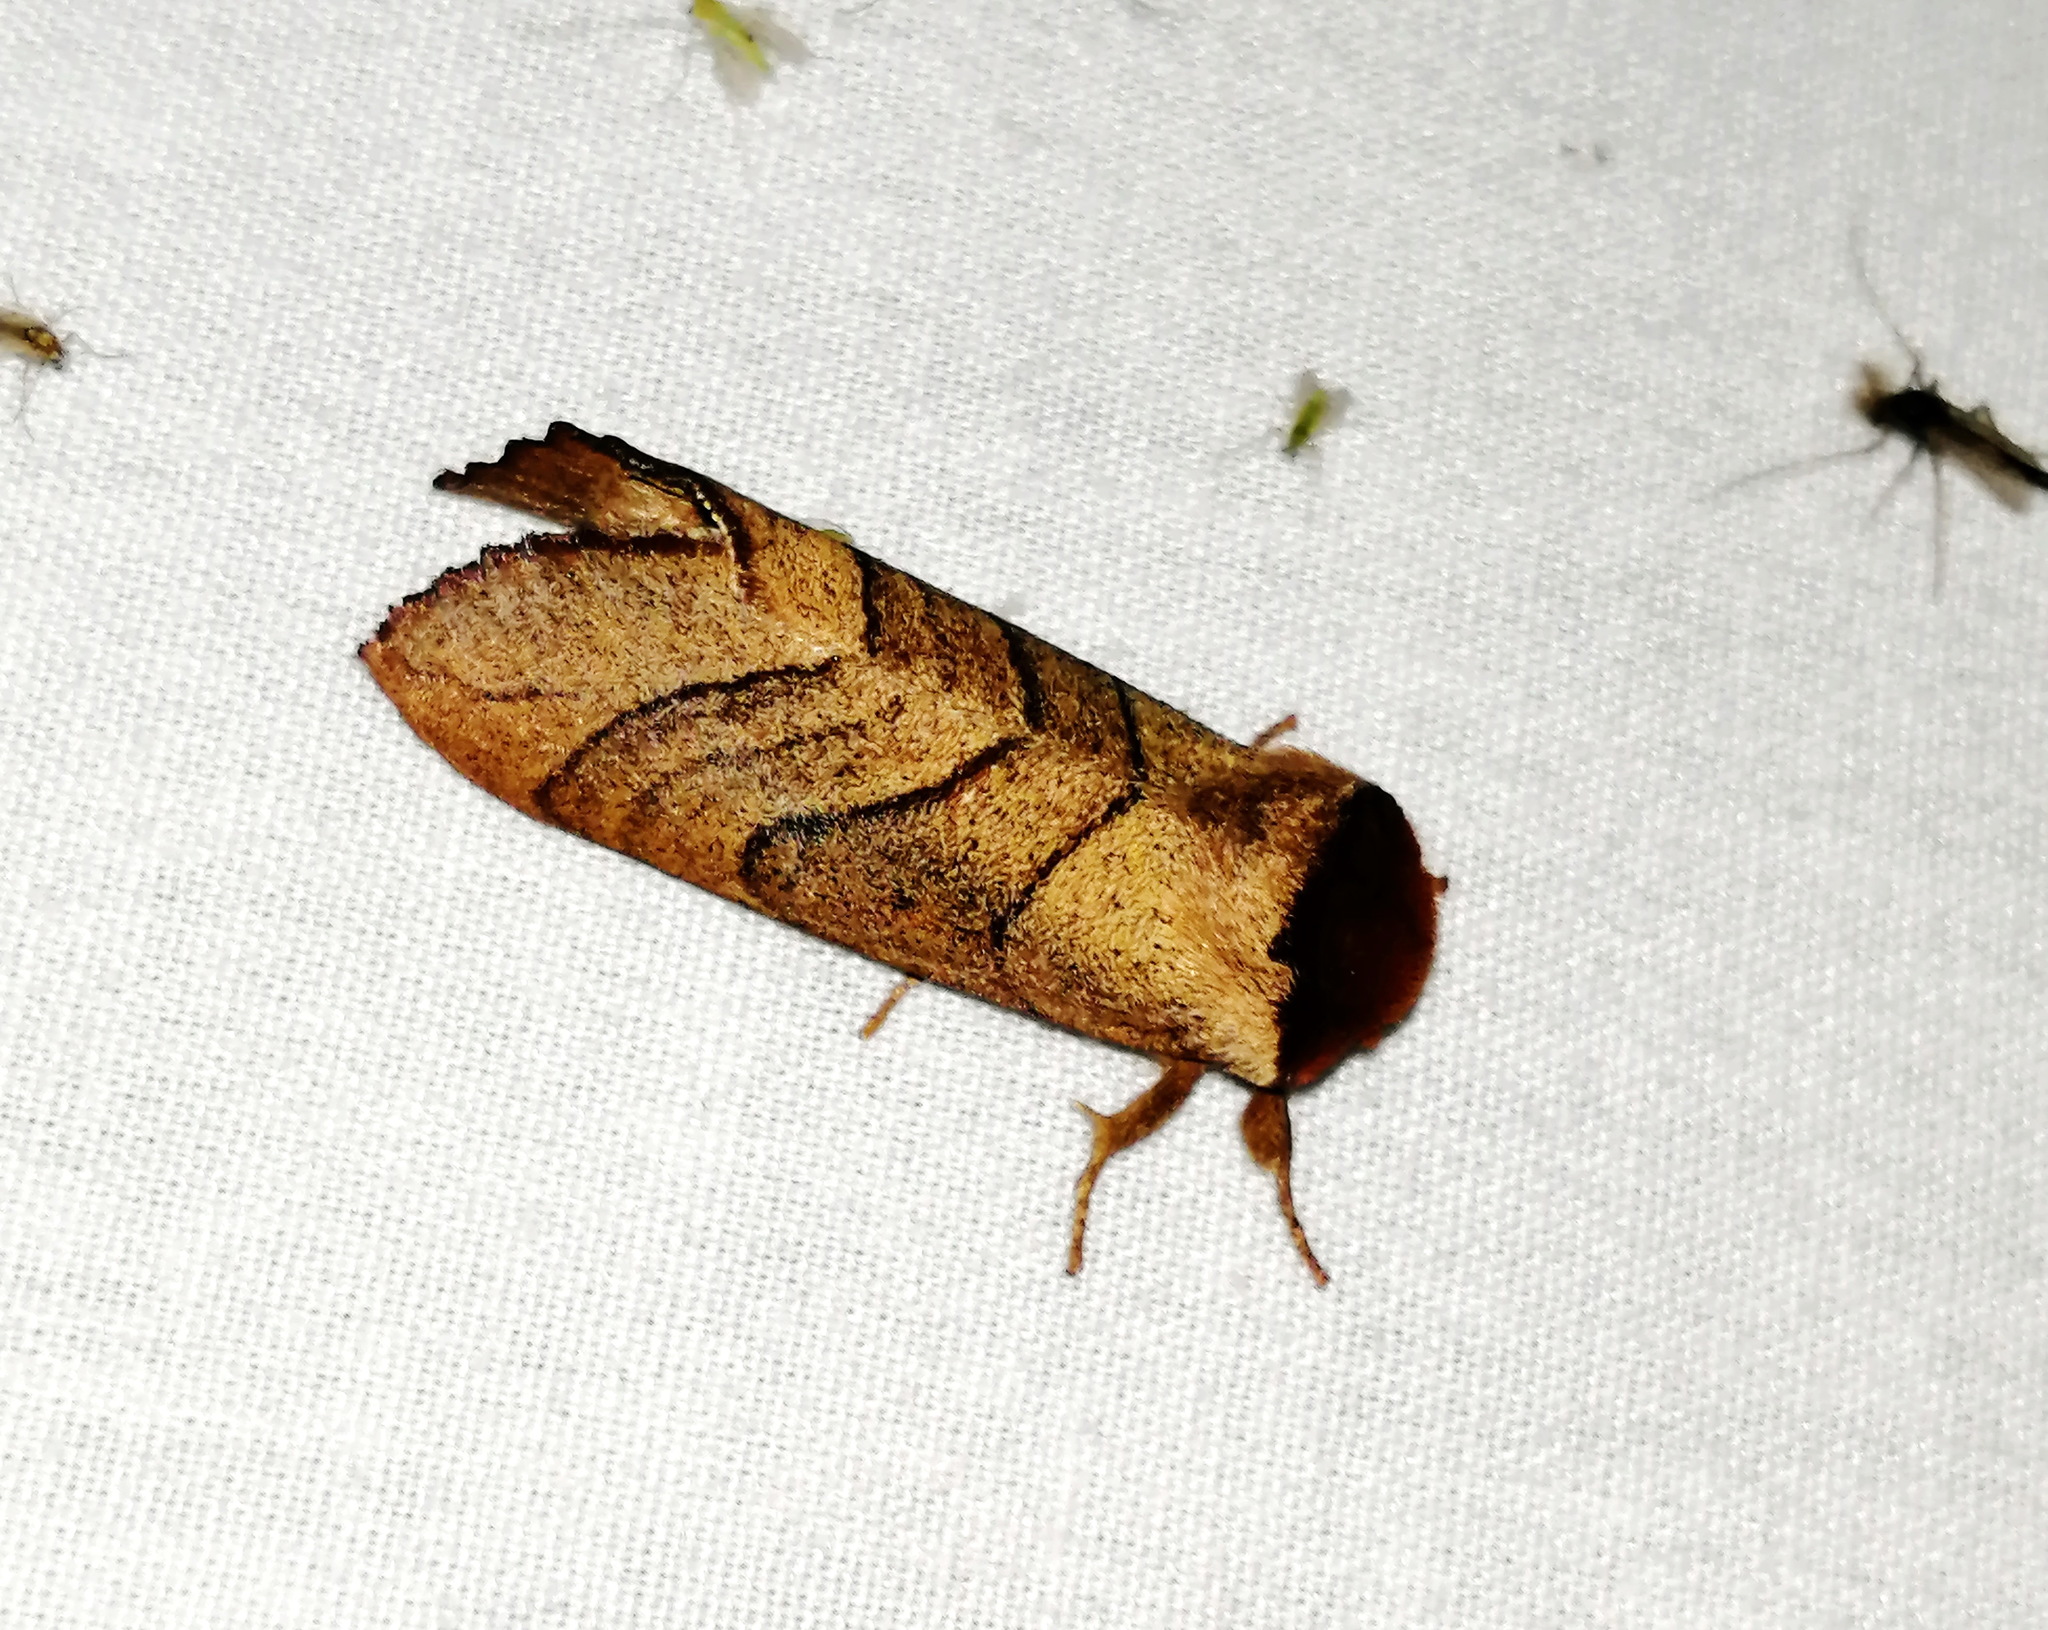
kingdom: Animalia
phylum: Arthropoda
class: Insecta
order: Lepidoptera
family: Notodontidae
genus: Datana
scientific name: Datana angusii
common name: Angus's datana
